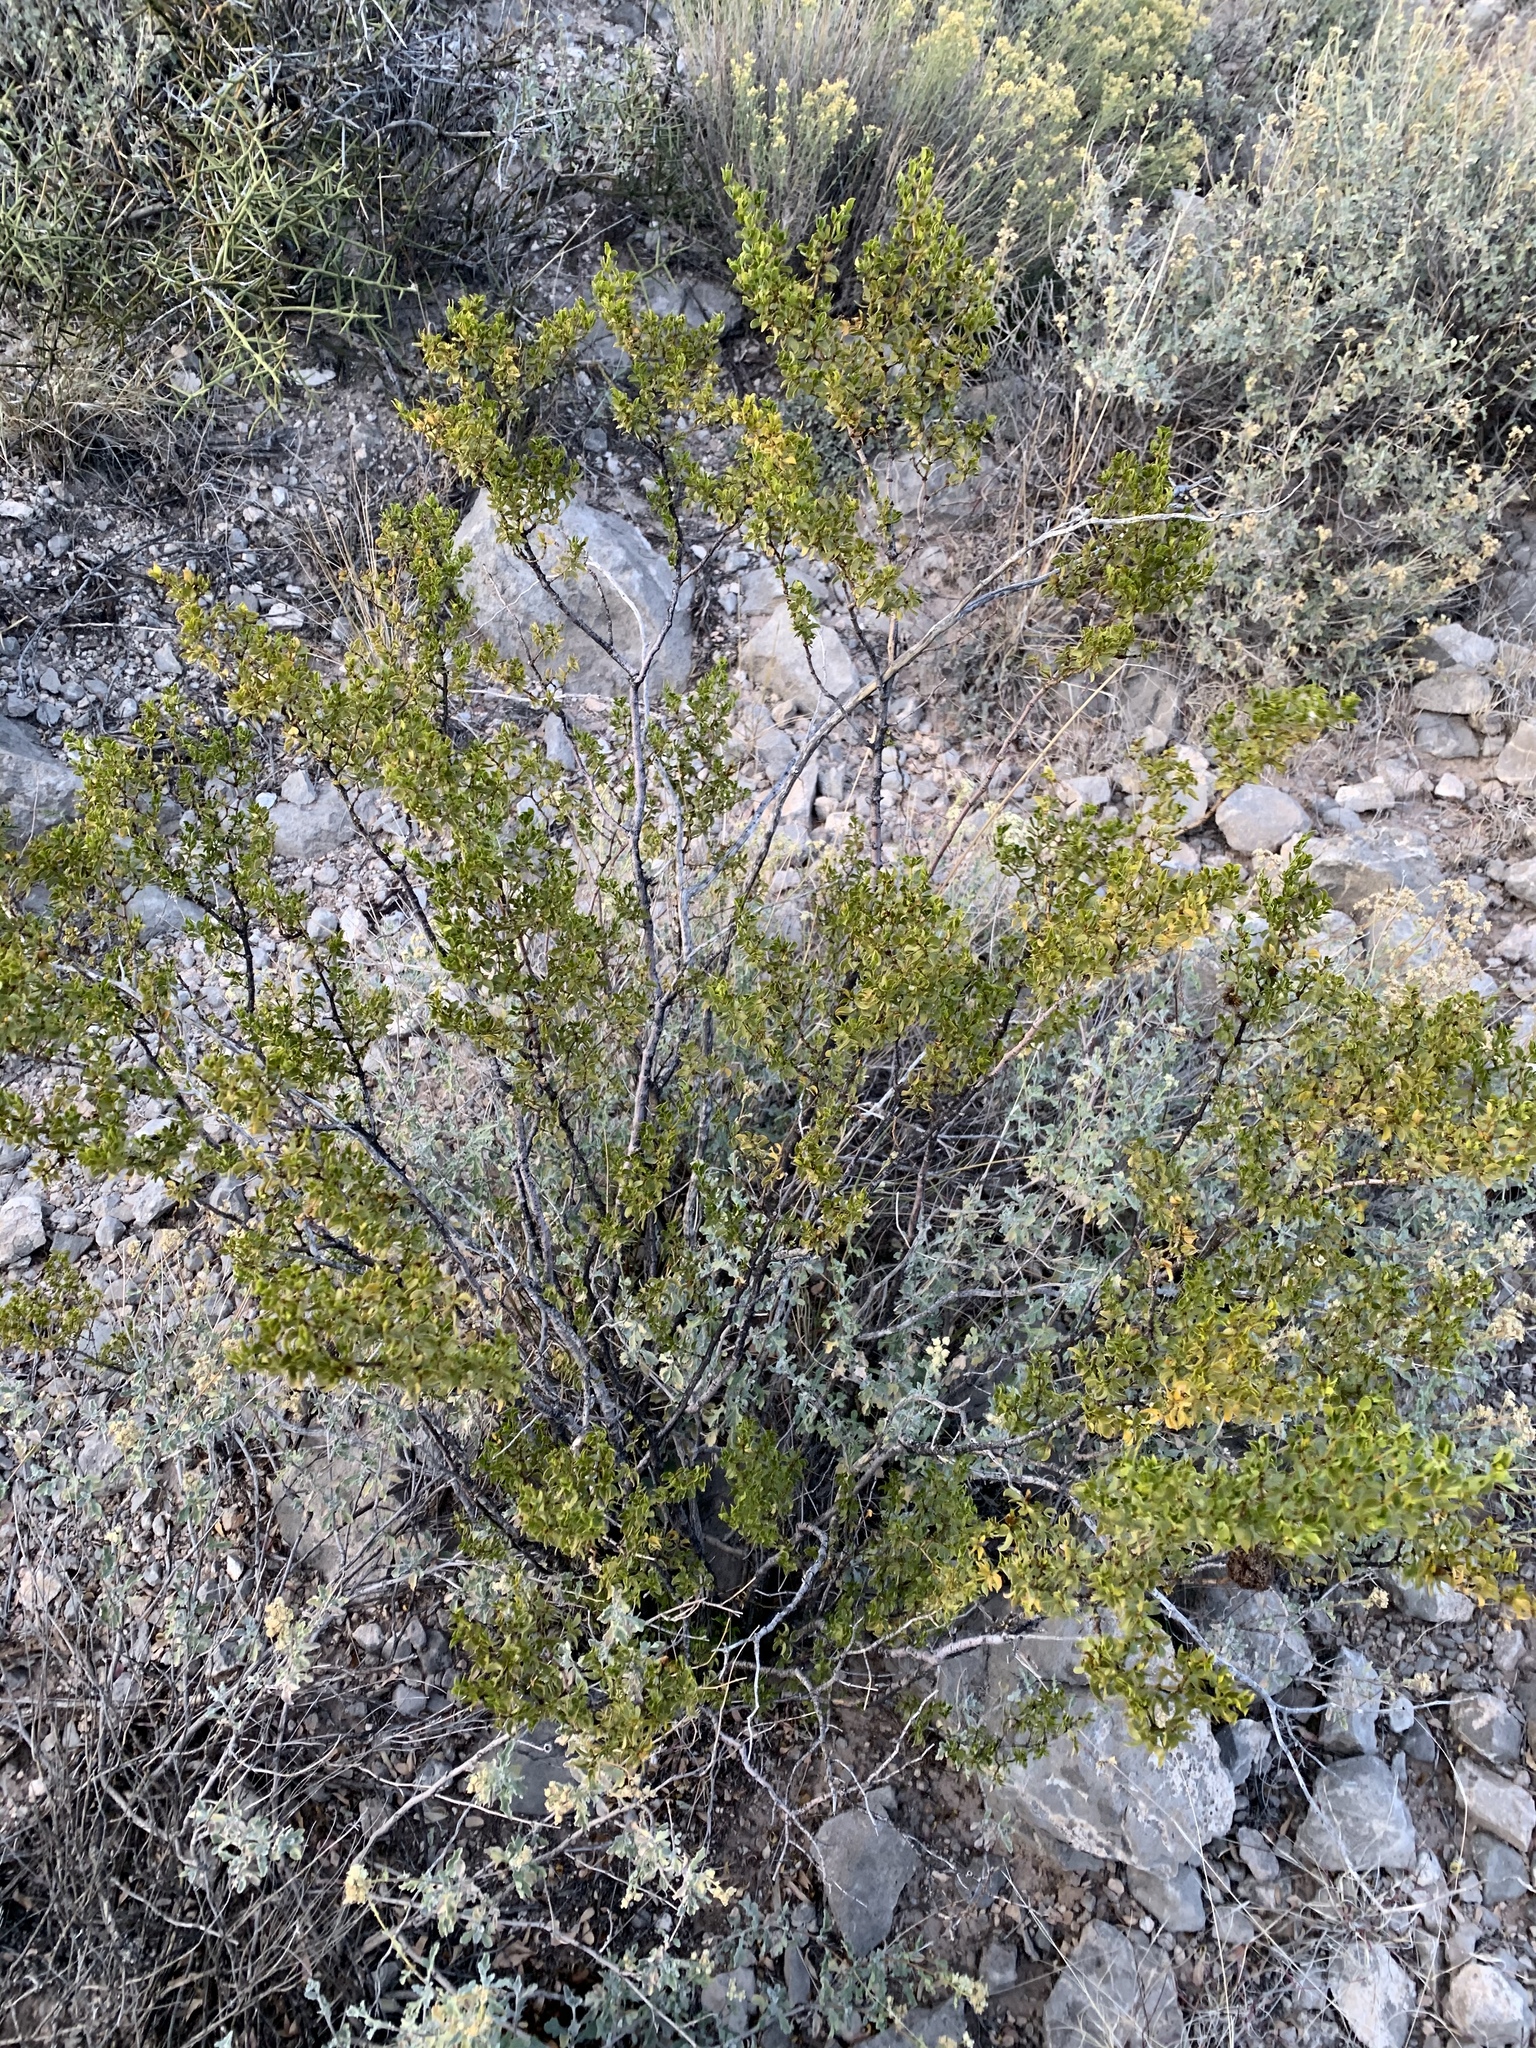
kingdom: Plantae
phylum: Tracheophyta
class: Magnoliopsida
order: Zygophyllales
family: Zygophyllaceae
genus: Larrea
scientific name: Larrea tridentata
